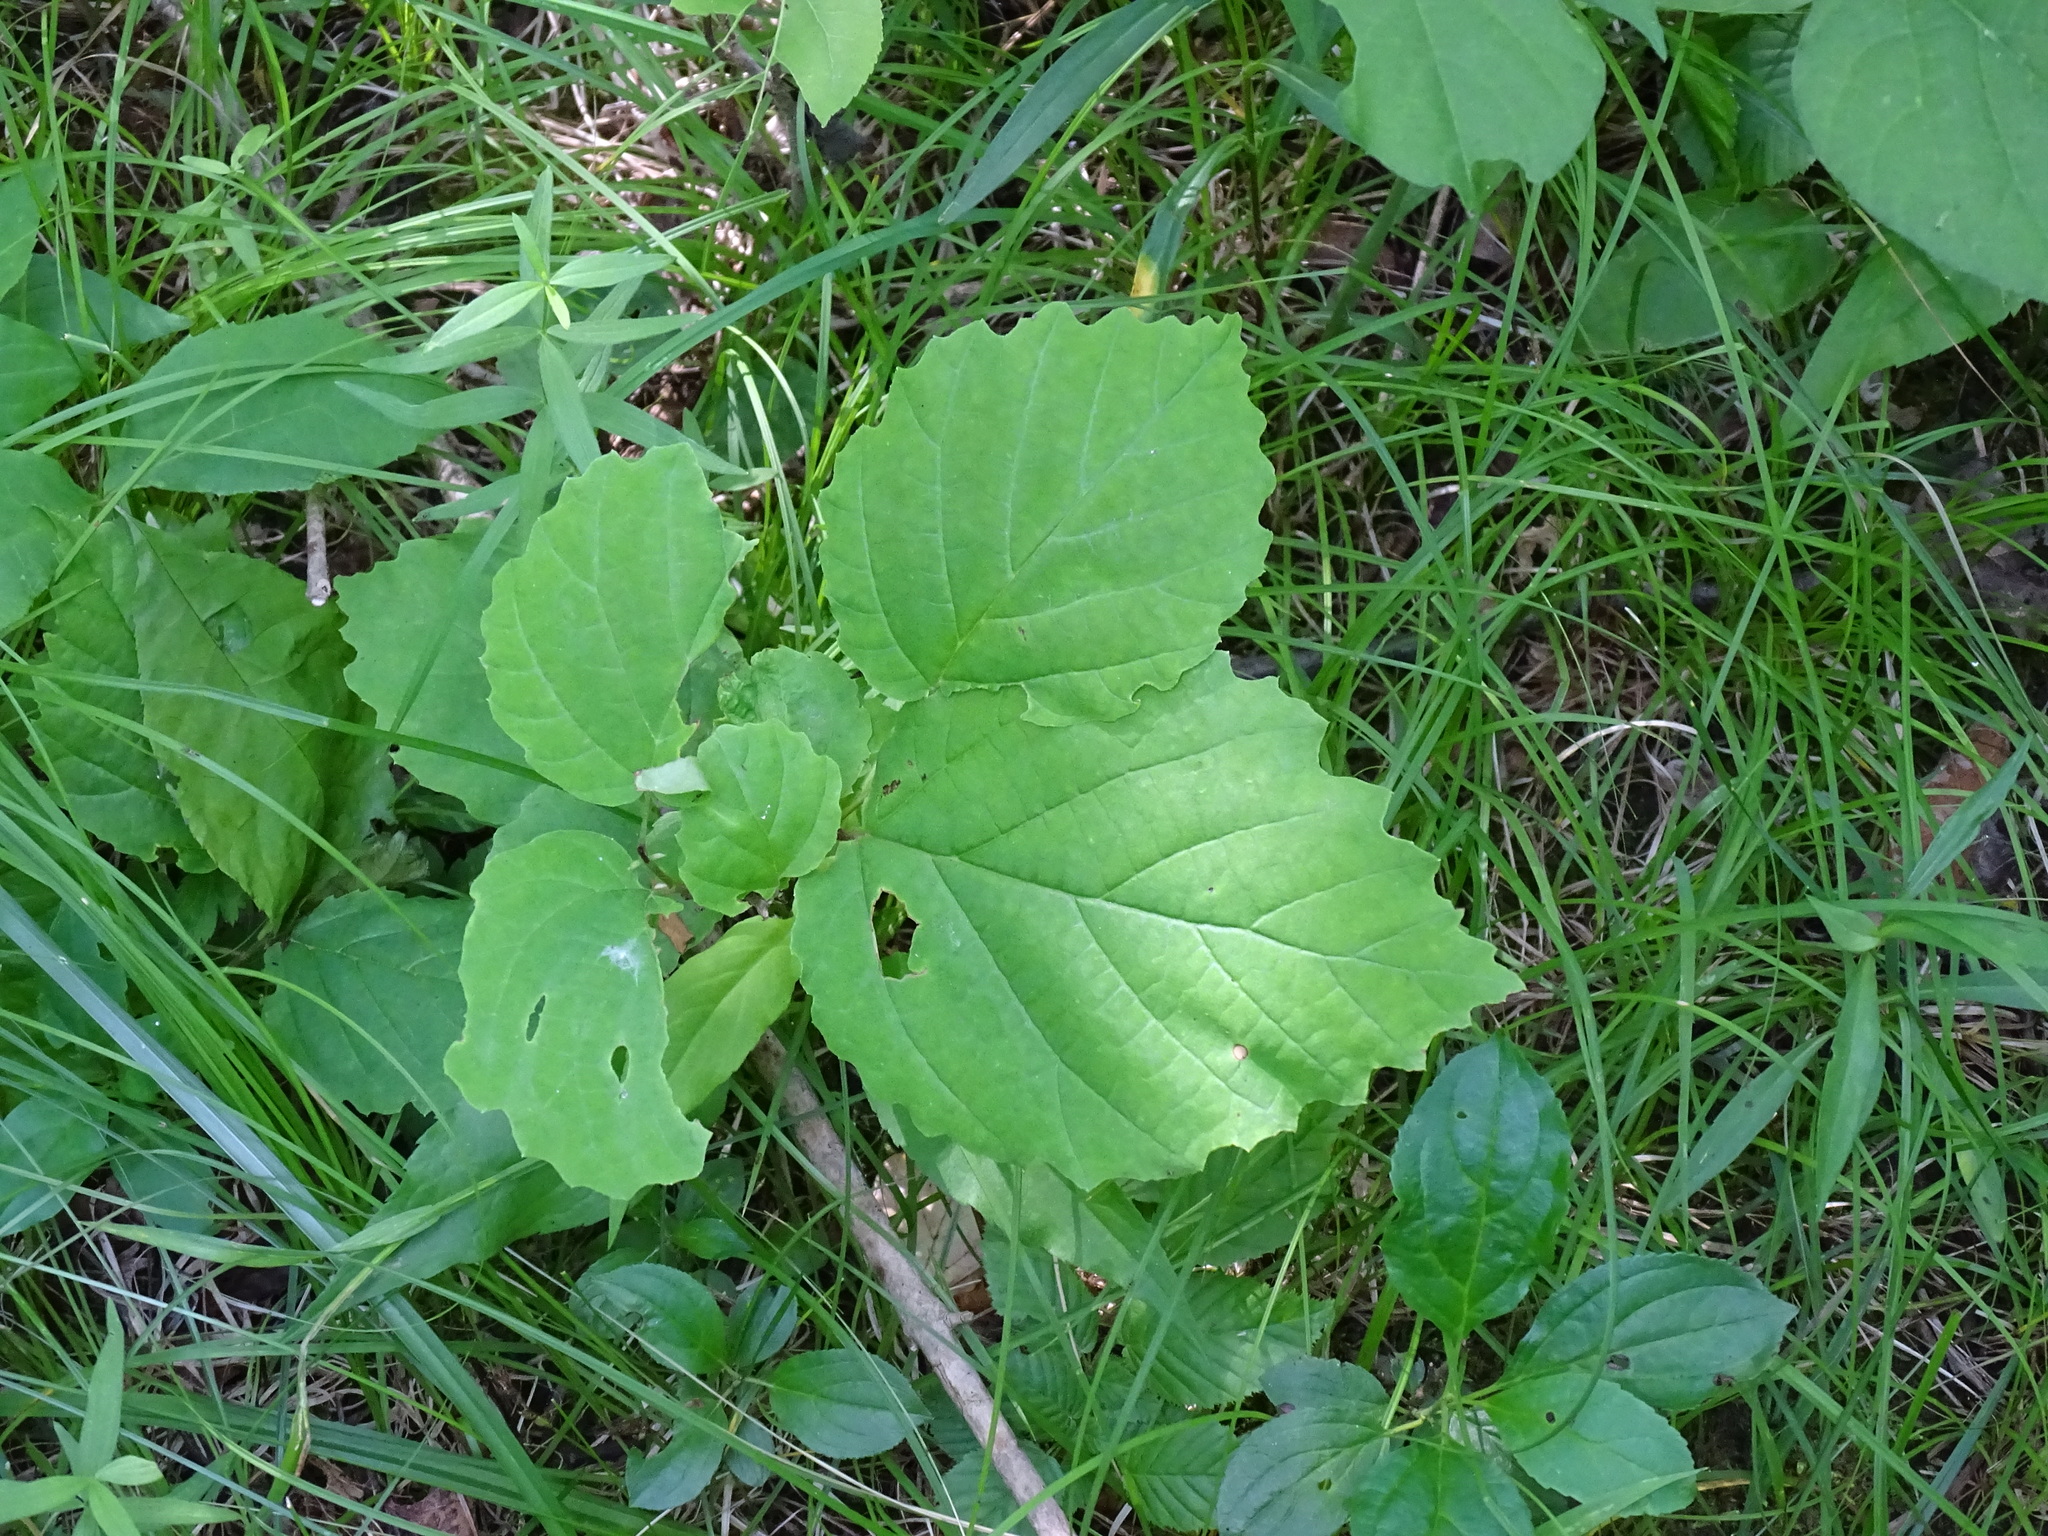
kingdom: Plantae
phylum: Tracheophyta
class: Magnoliopsida
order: Saxifragales
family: Hamamelidaceae
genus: Hamamelis
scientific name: Hamamelis virginiana
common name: Witch-hazel
